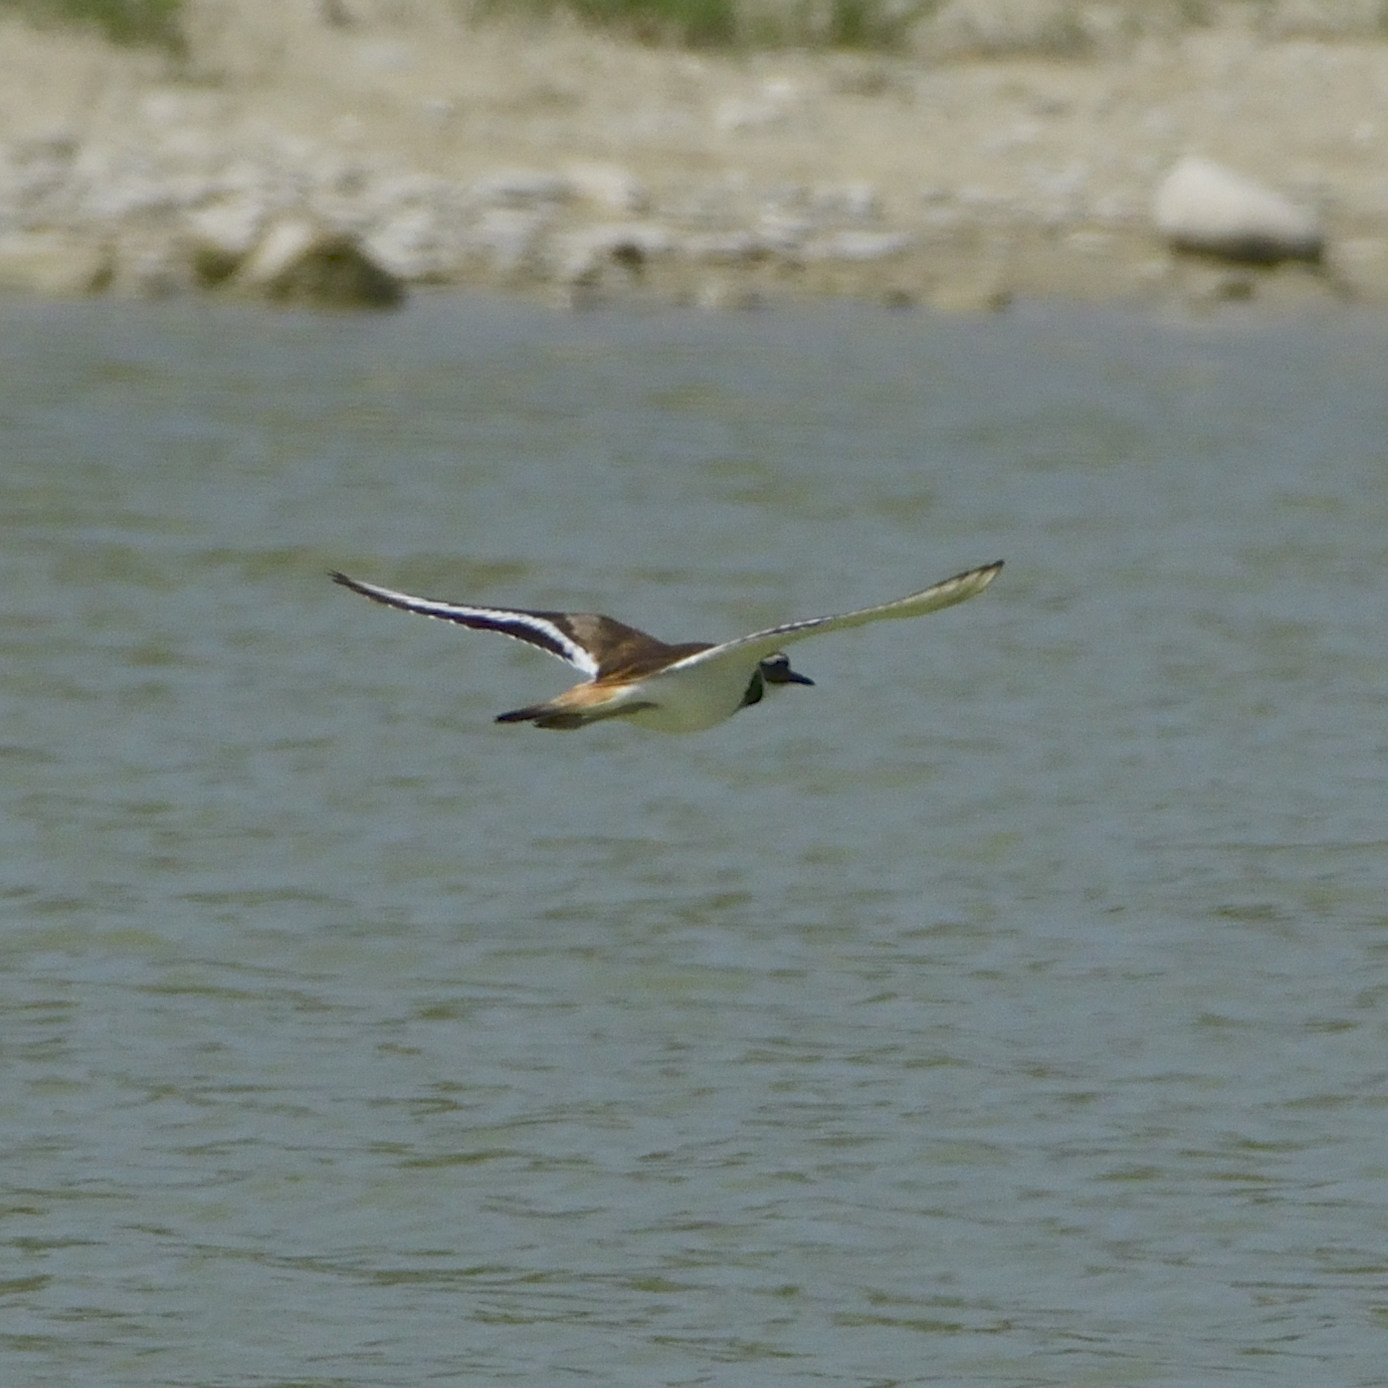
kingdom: Animalia
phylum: Chordata
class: Aves
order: Charadriiformes
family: Charadriidae
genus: Charadrius
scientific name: Charadrius vociferus
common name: Killdeer
